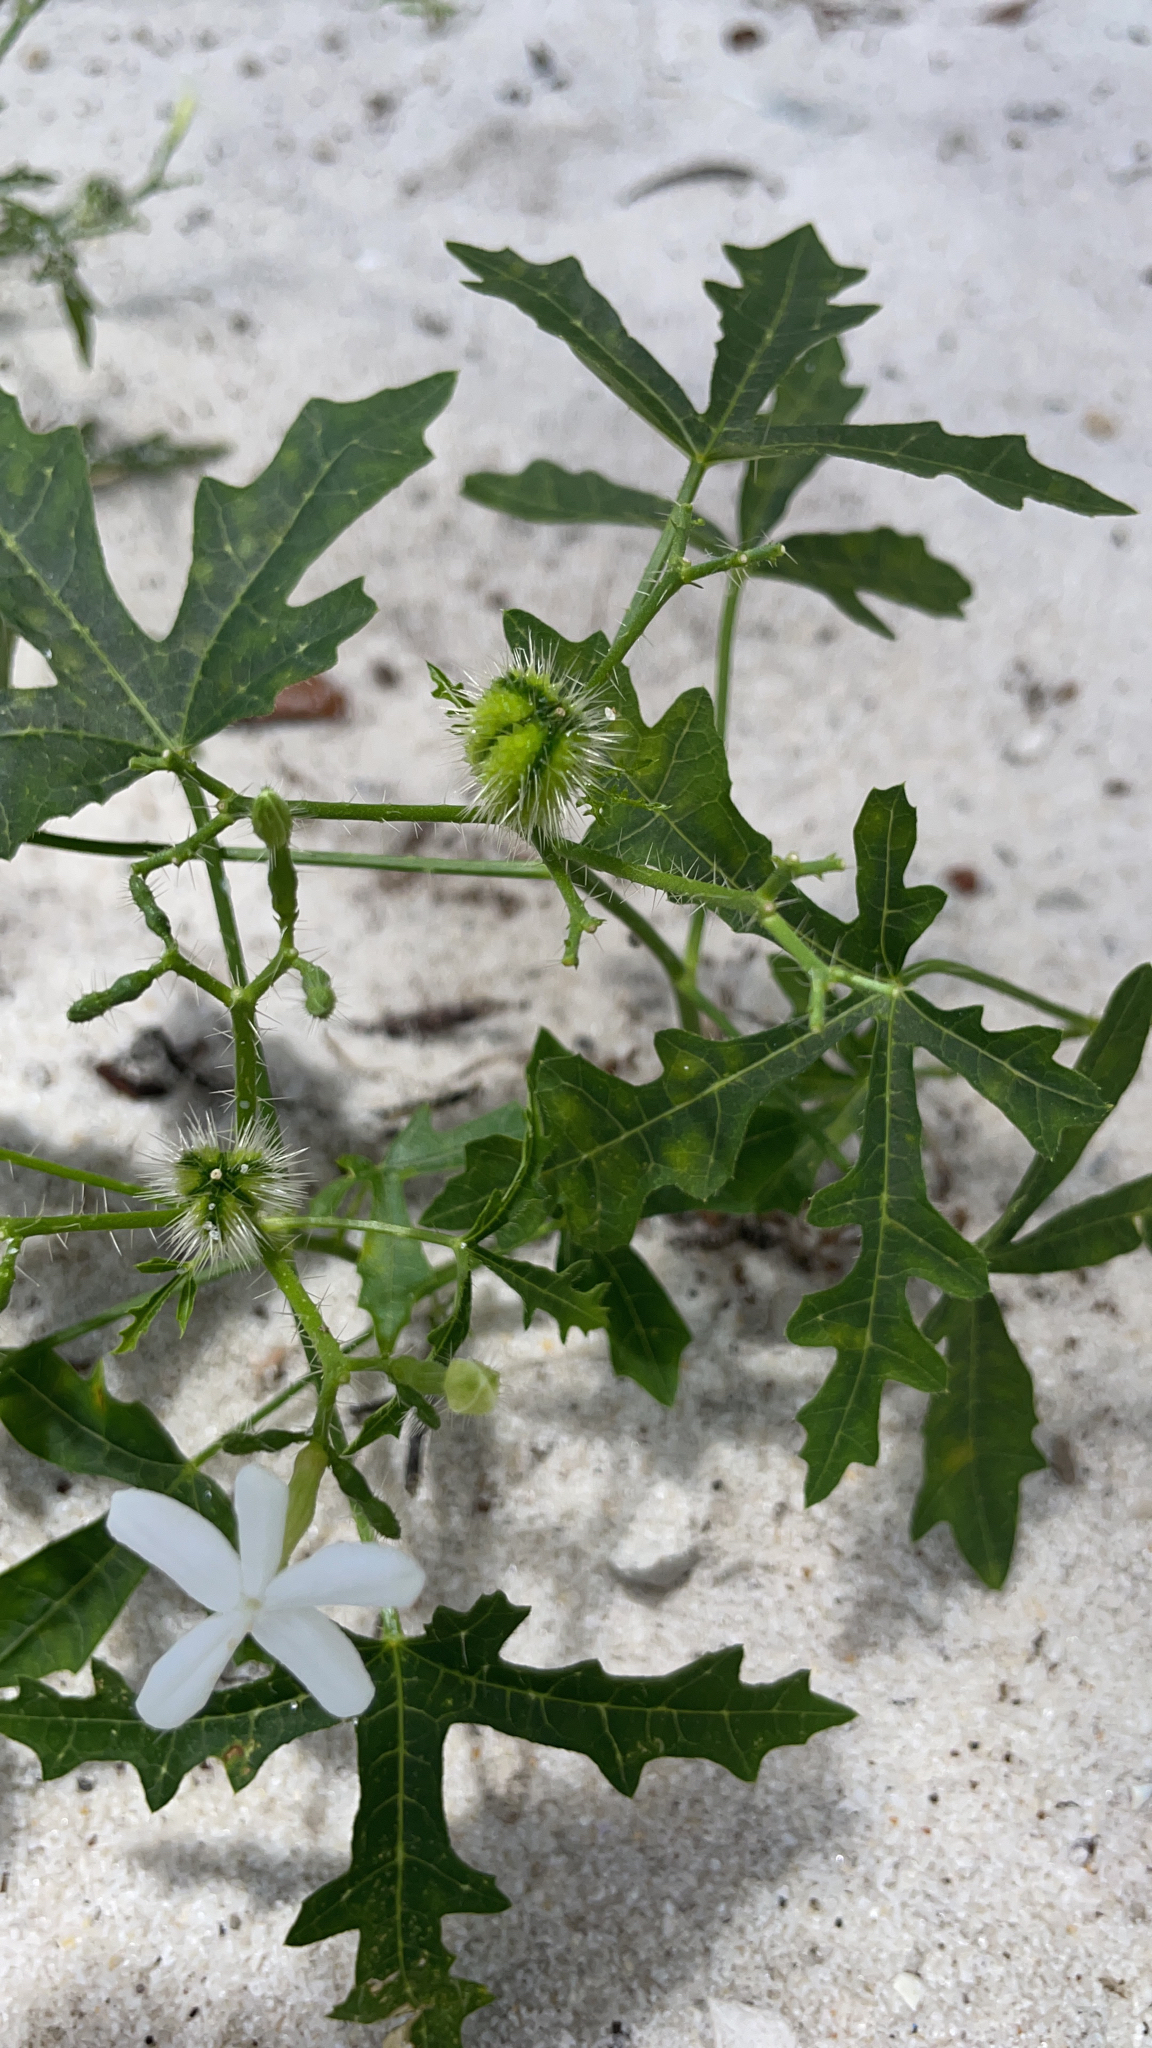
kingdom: Plantae
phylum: Tracheophyta
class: Magnoliopsida
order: Malpighiales
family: Euphorbiaceae
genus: Cnidoscolus
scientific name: Cnidoscolus stimulosus
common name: Bull-nettle
